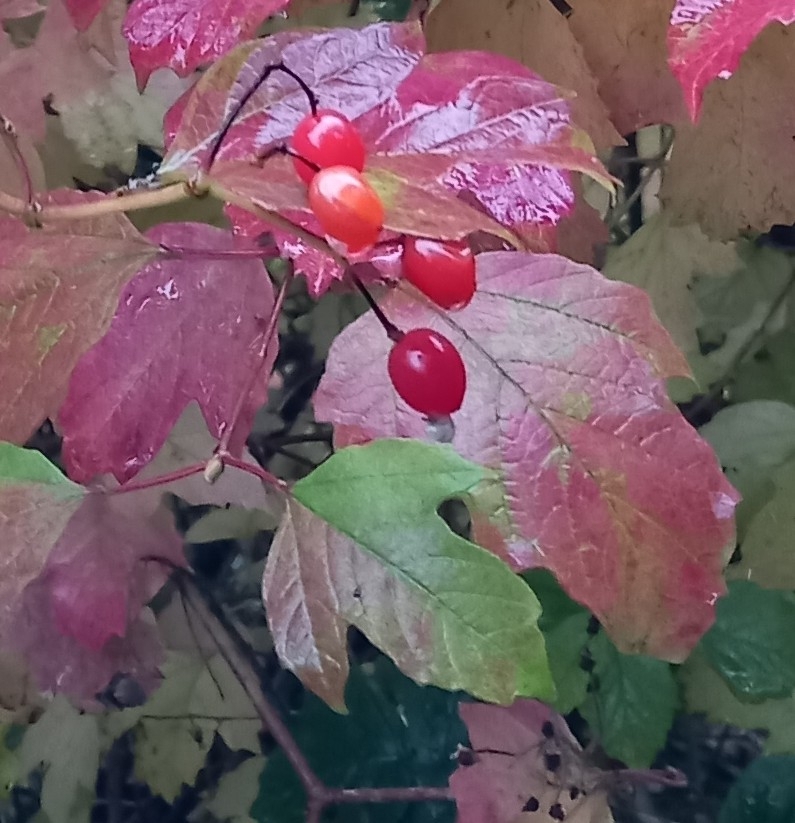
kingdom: Plantae
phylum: Tracheophyta
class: Magnoliopsida
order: Dipsacales
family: Viburnaceae
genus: Viburnum
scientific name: Viburnum opulus
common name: Guelder-rose
